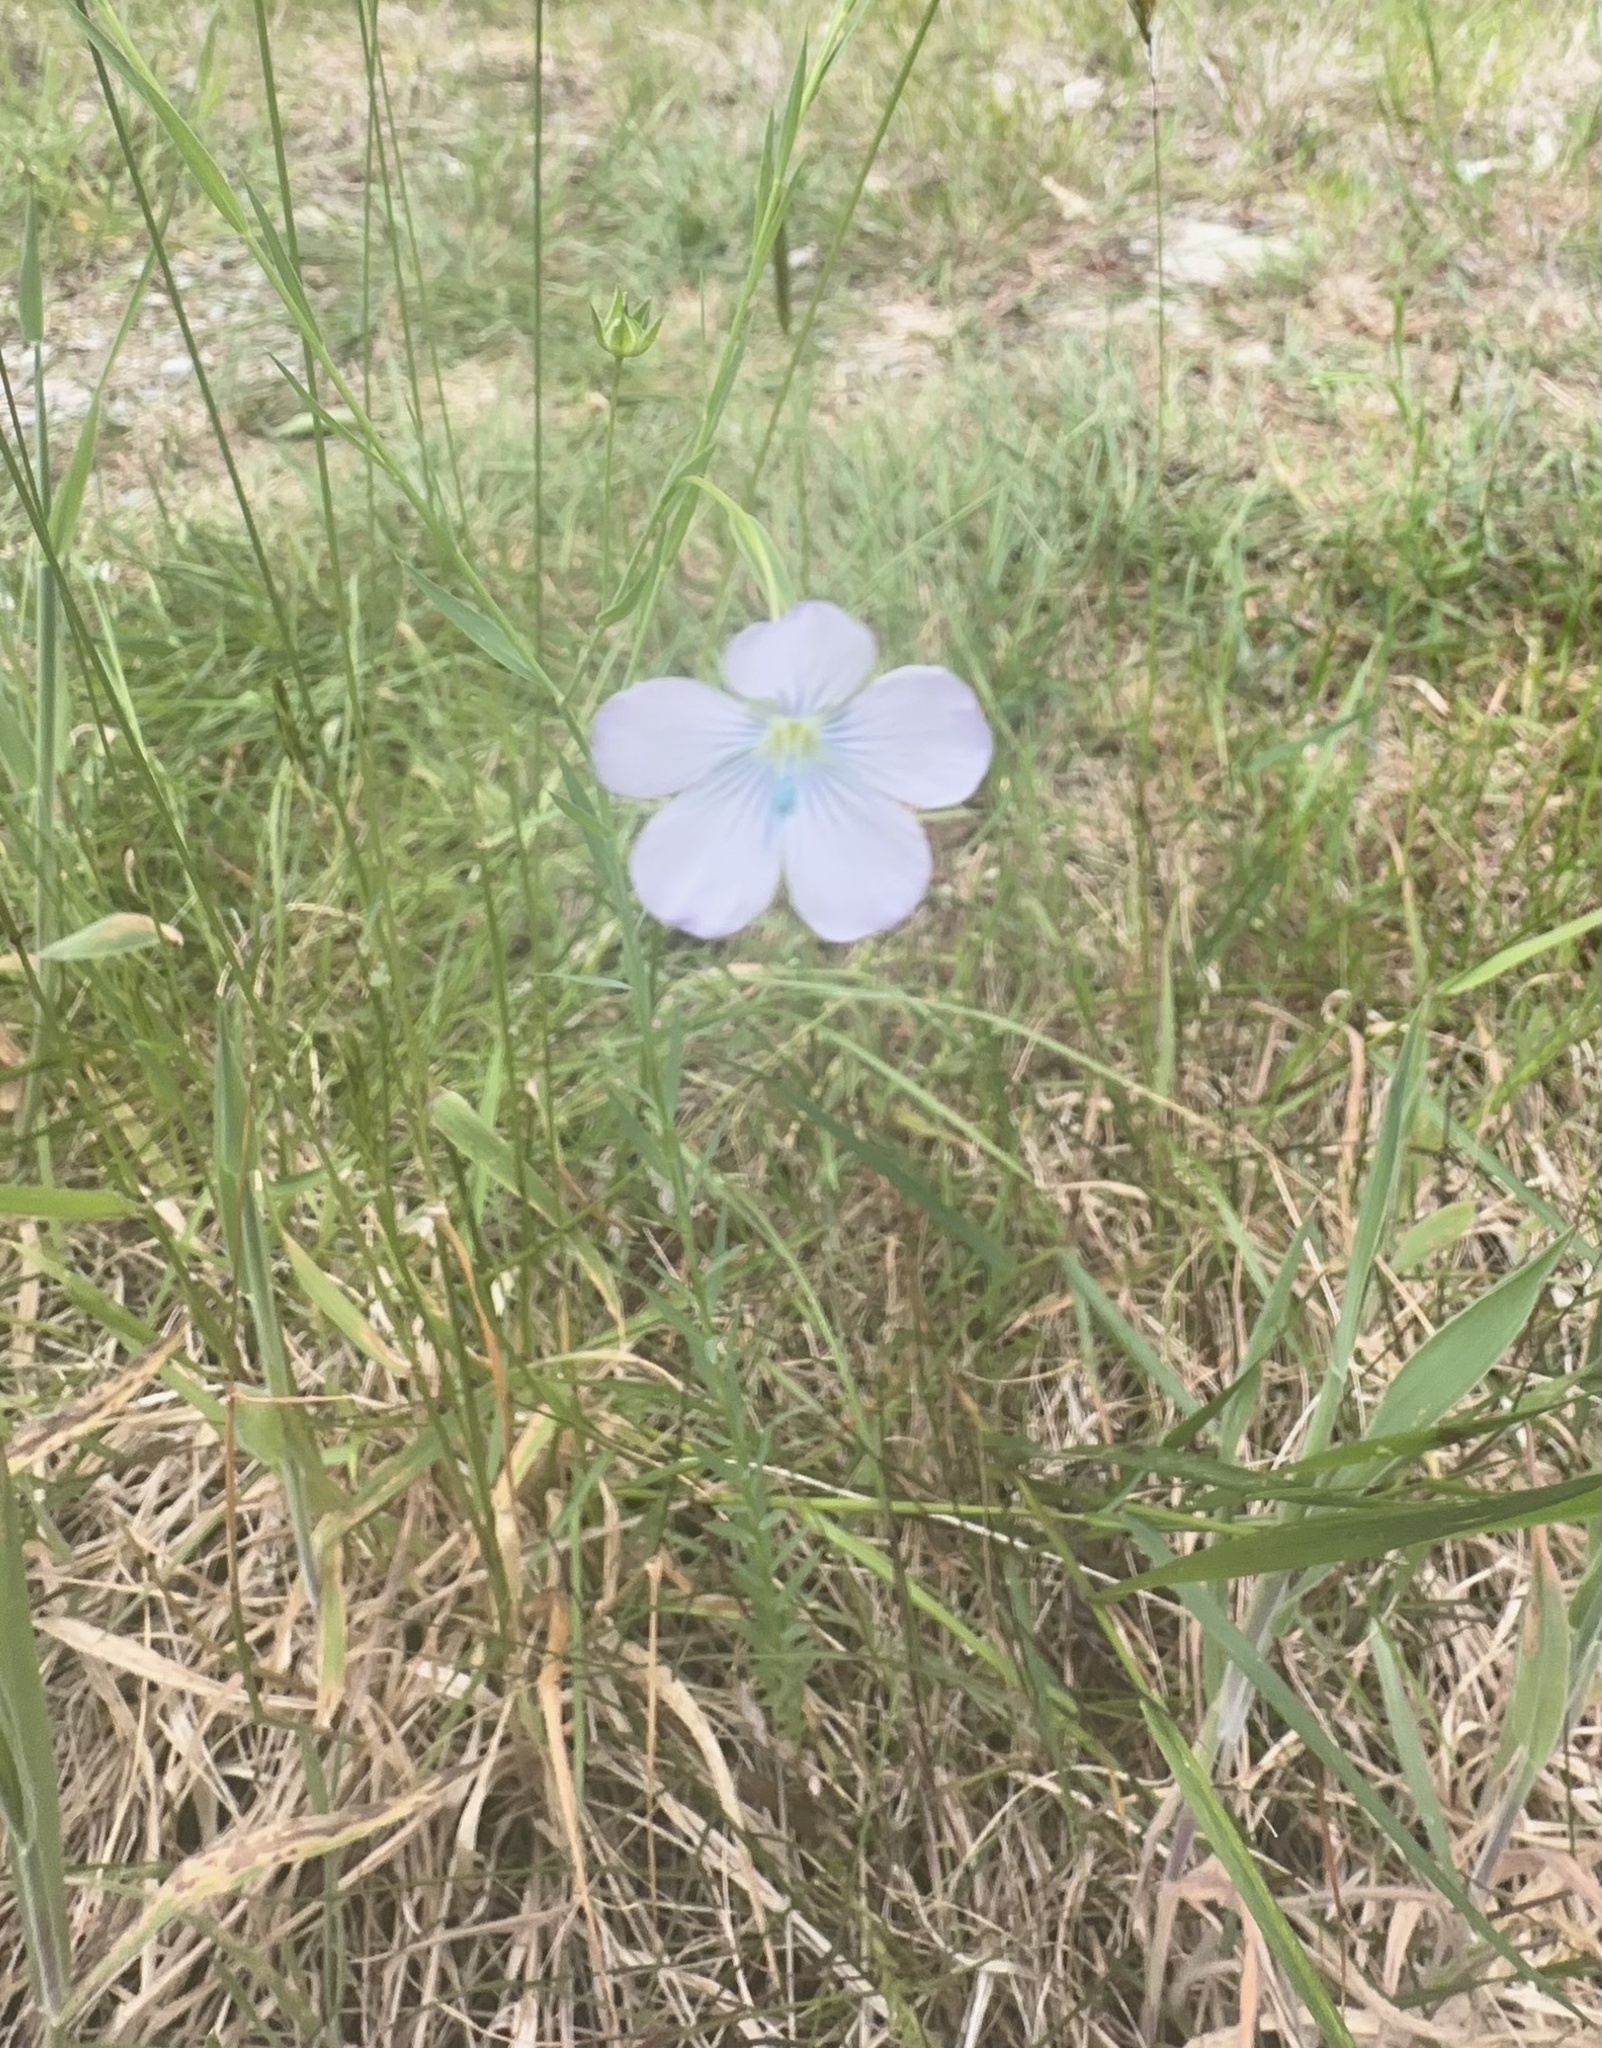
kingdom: Plantae
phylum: Tracheophyta
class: Magnoliopsida
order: Malpighiales
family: Linaceae
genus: Linum
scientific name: Linum bienne
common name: Pale flax
